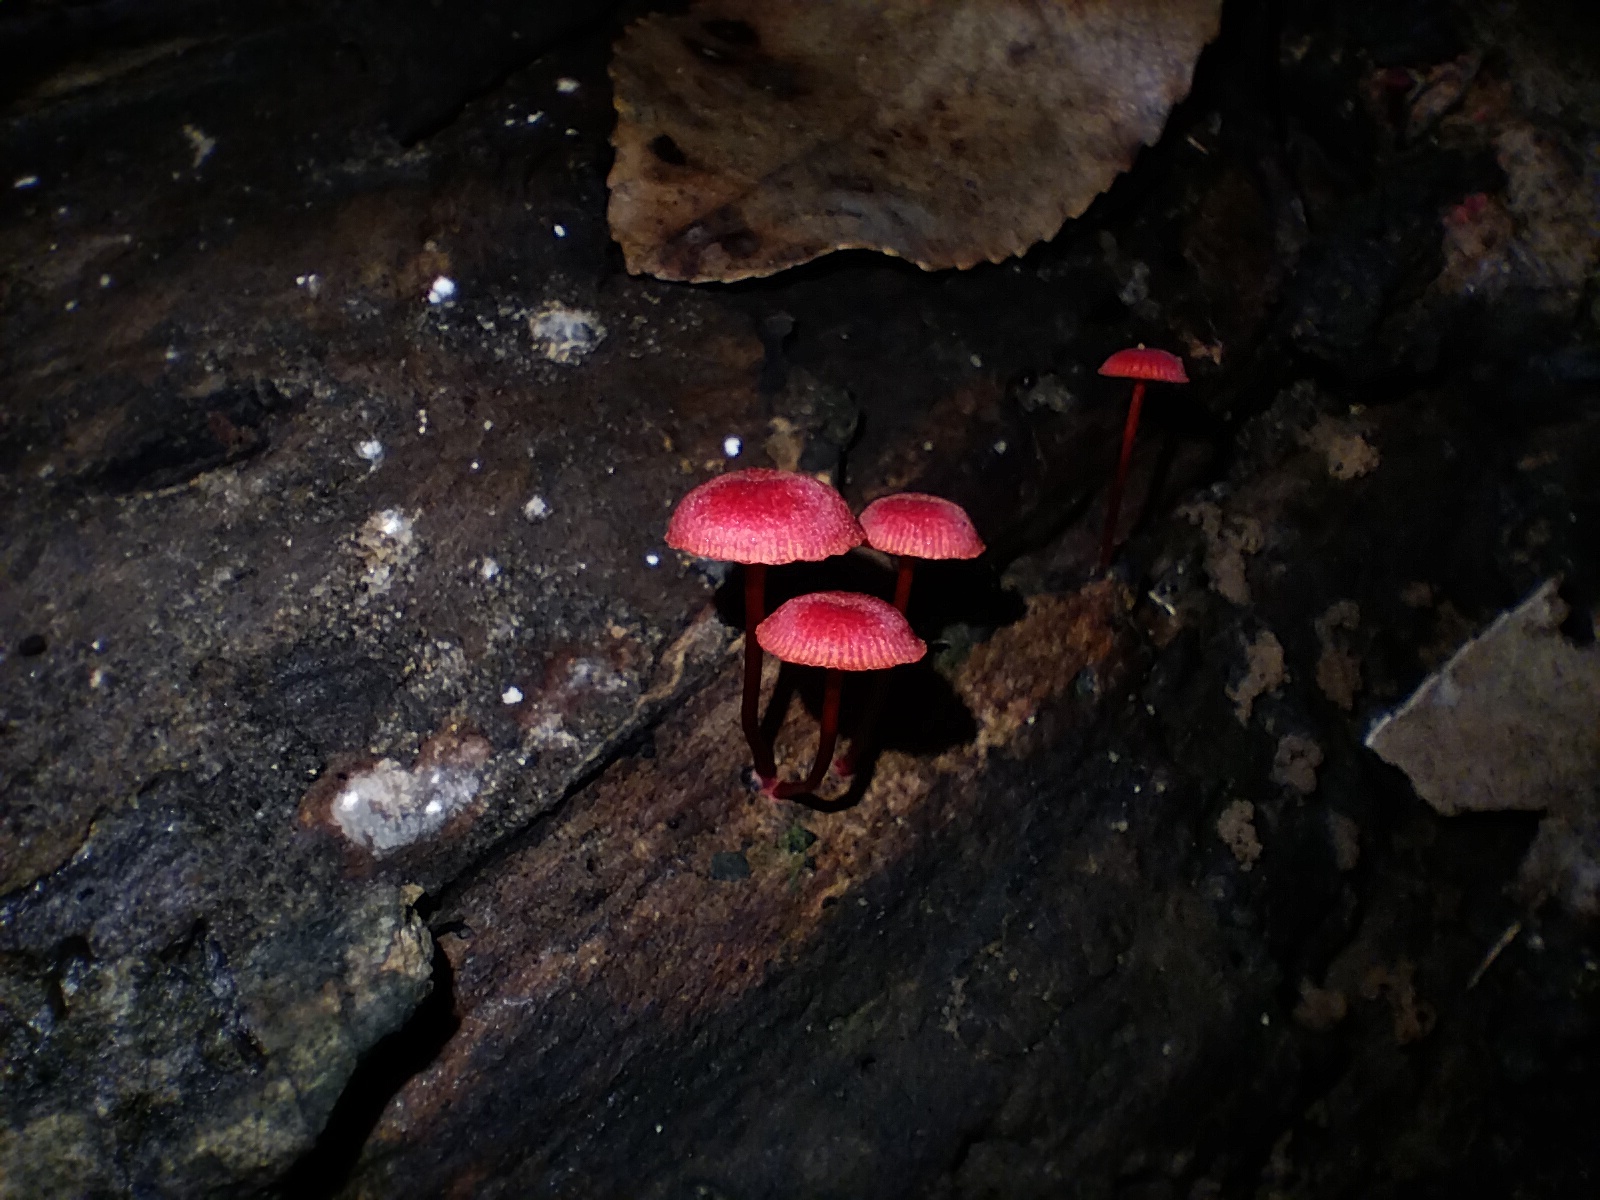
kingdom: Fungi
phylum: Basidiomycota
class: Agaricomycetes
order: Agaricales
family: Mycenaceae
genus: Cruentomycena
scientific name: Cruentomycena viscidocruenta
